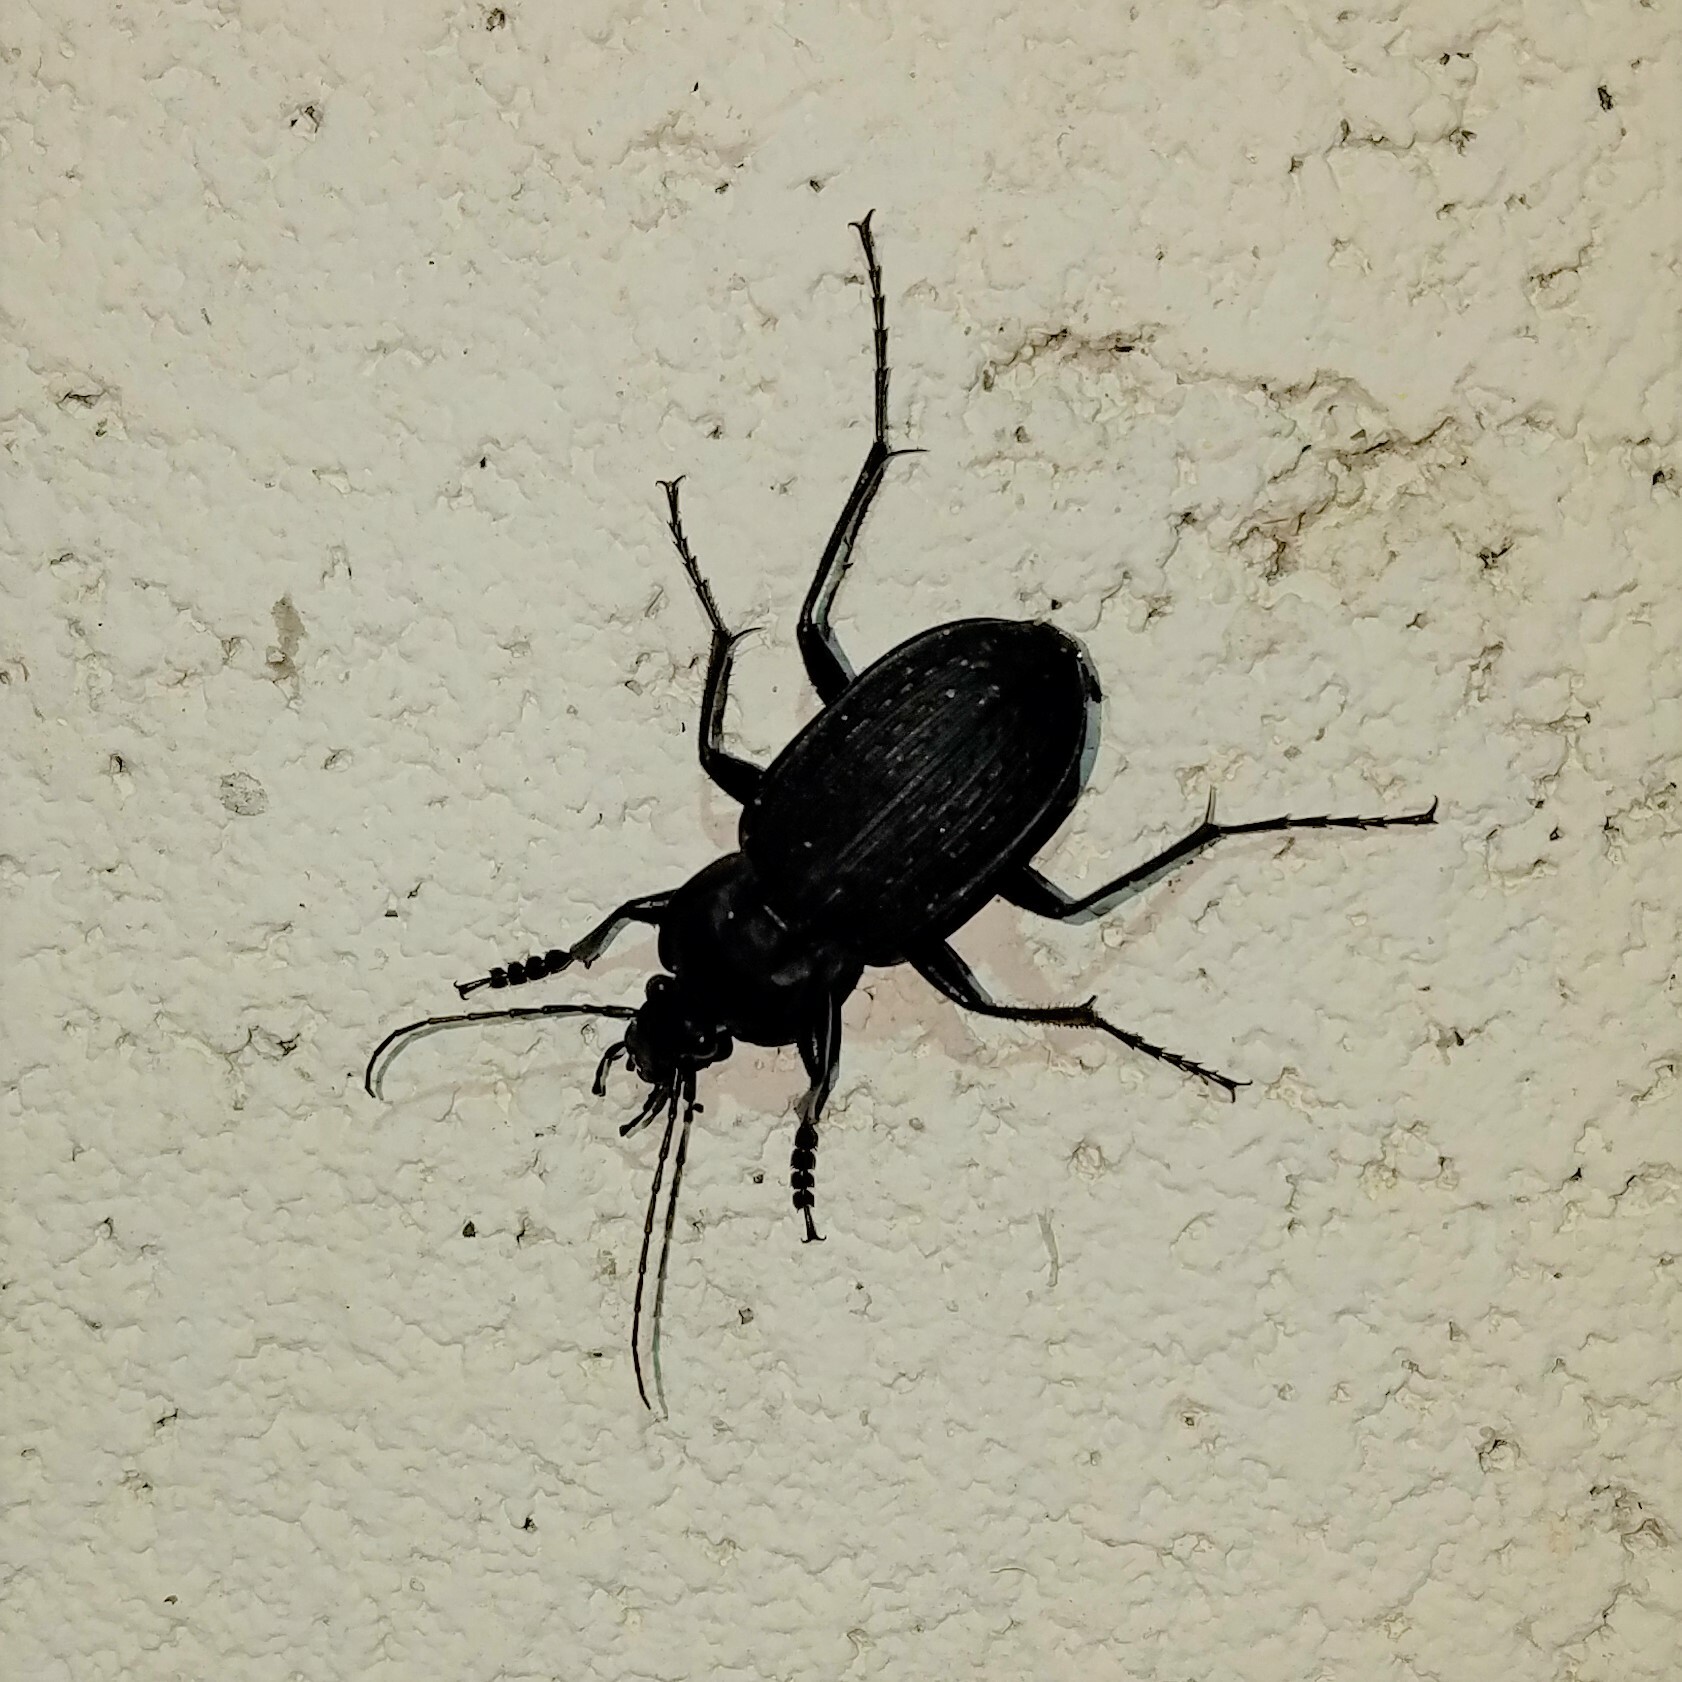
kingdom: Animalia
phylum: Arthropoda
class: Insecta
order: Coleoptera
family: Carabidae
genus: Carabus
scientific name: Carabus vinctus
